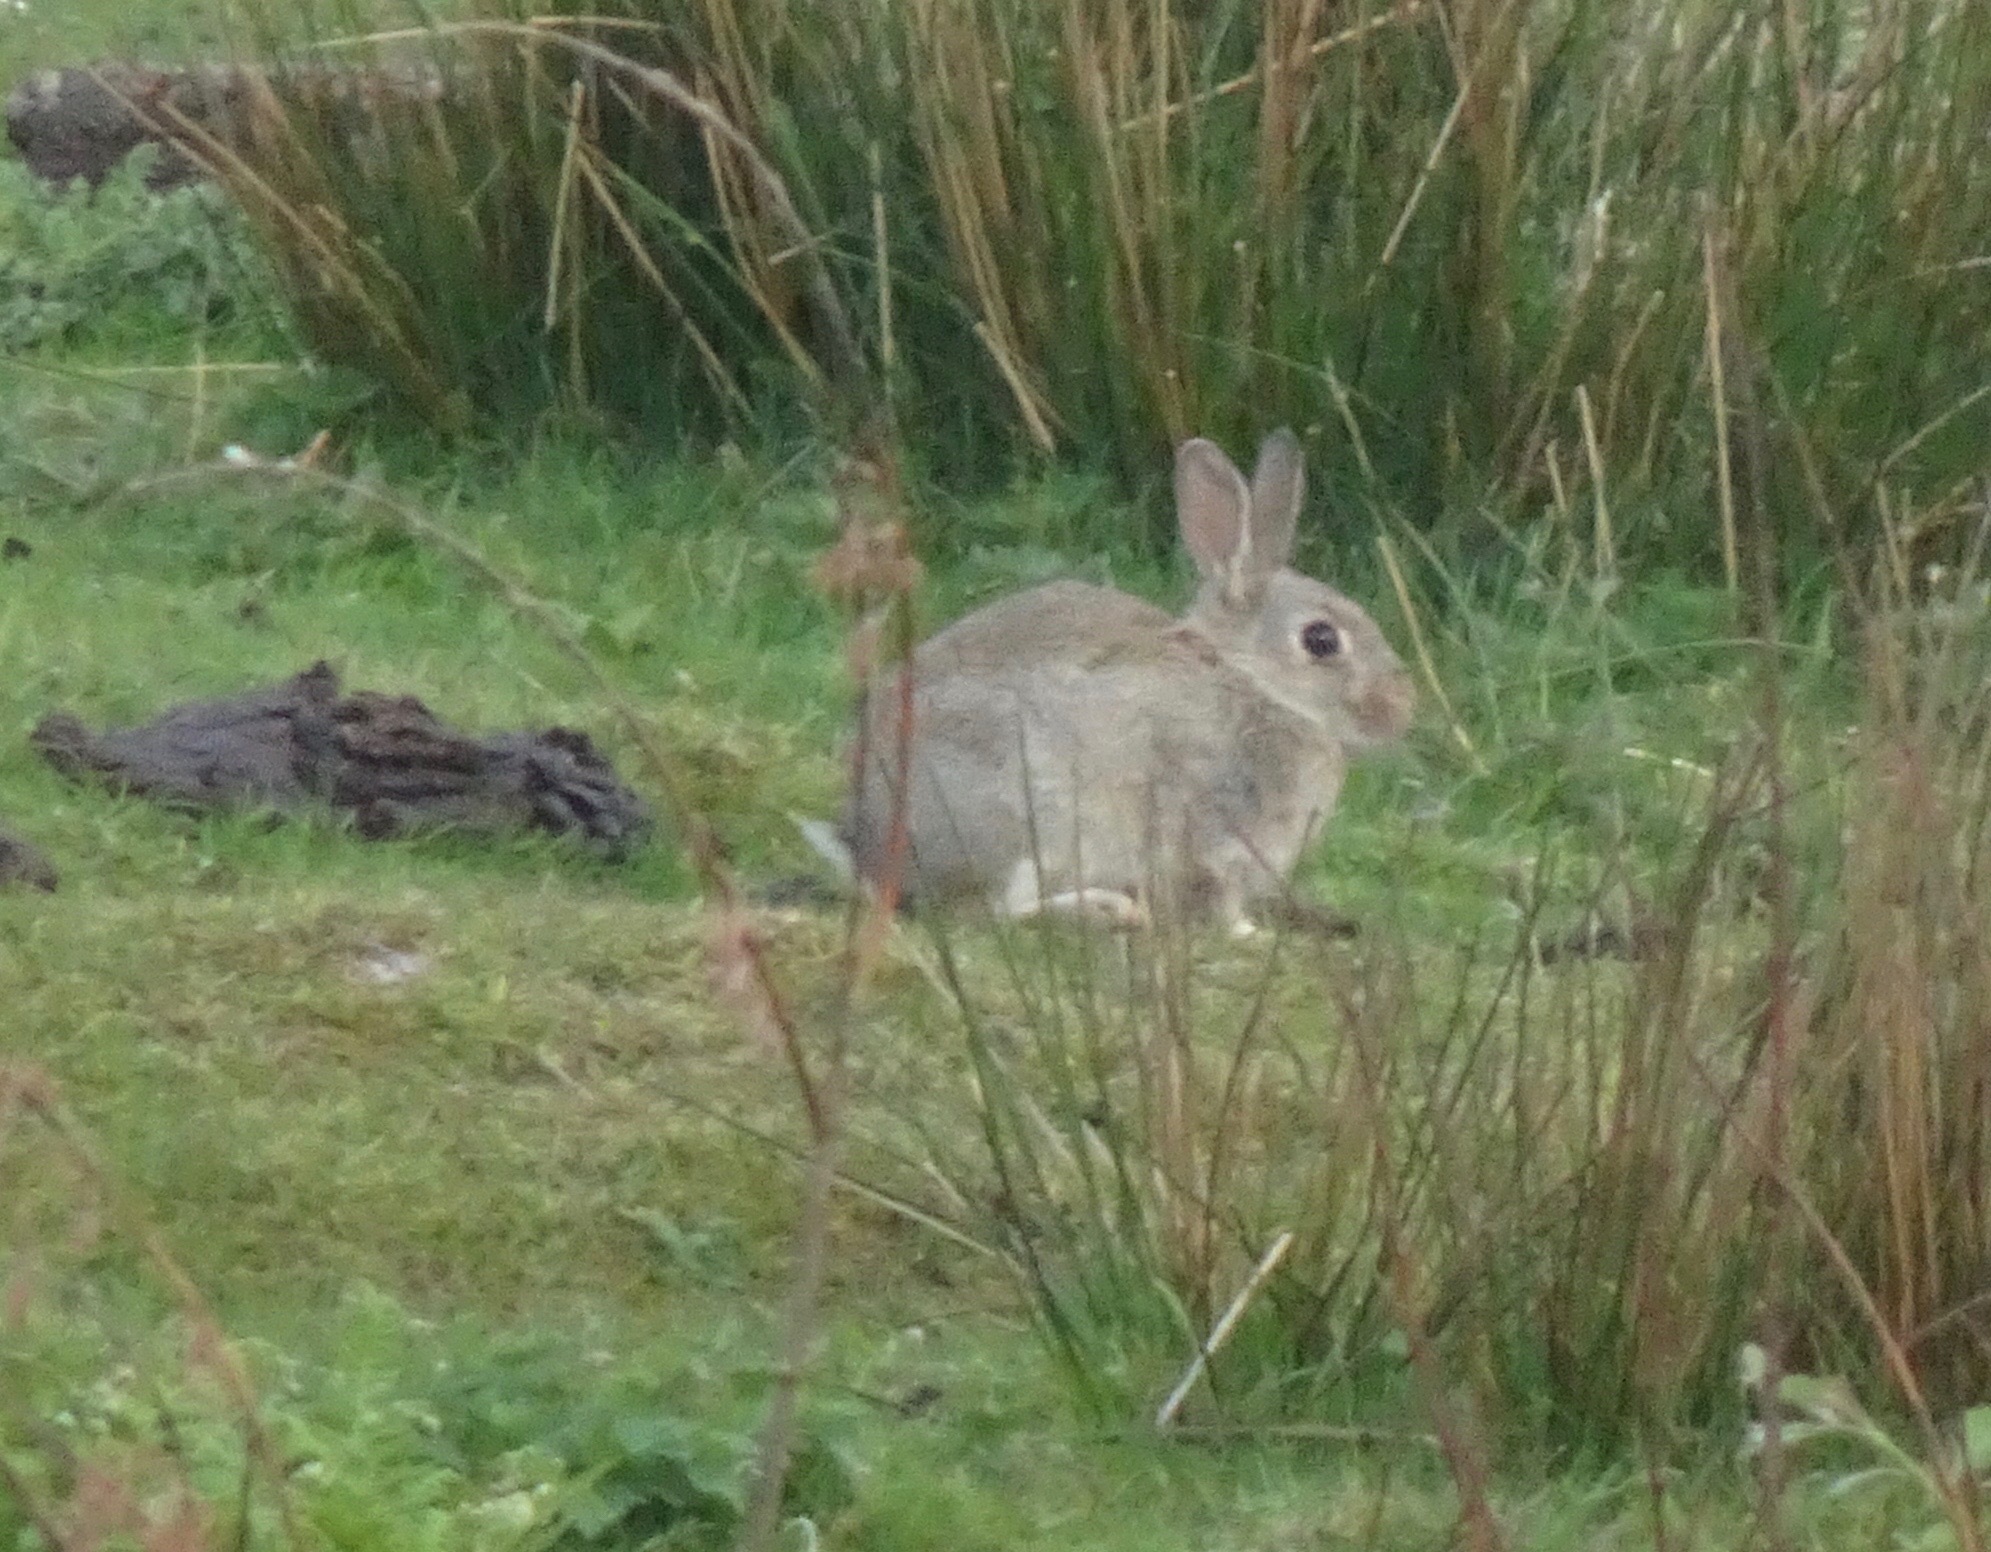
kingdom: Animalia
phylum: Chordata
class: Mammalia
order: Lagomorpha
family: Leporidae
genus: Oryctolagus
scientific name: Oryctolagus cuniculus
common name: European rabbit
